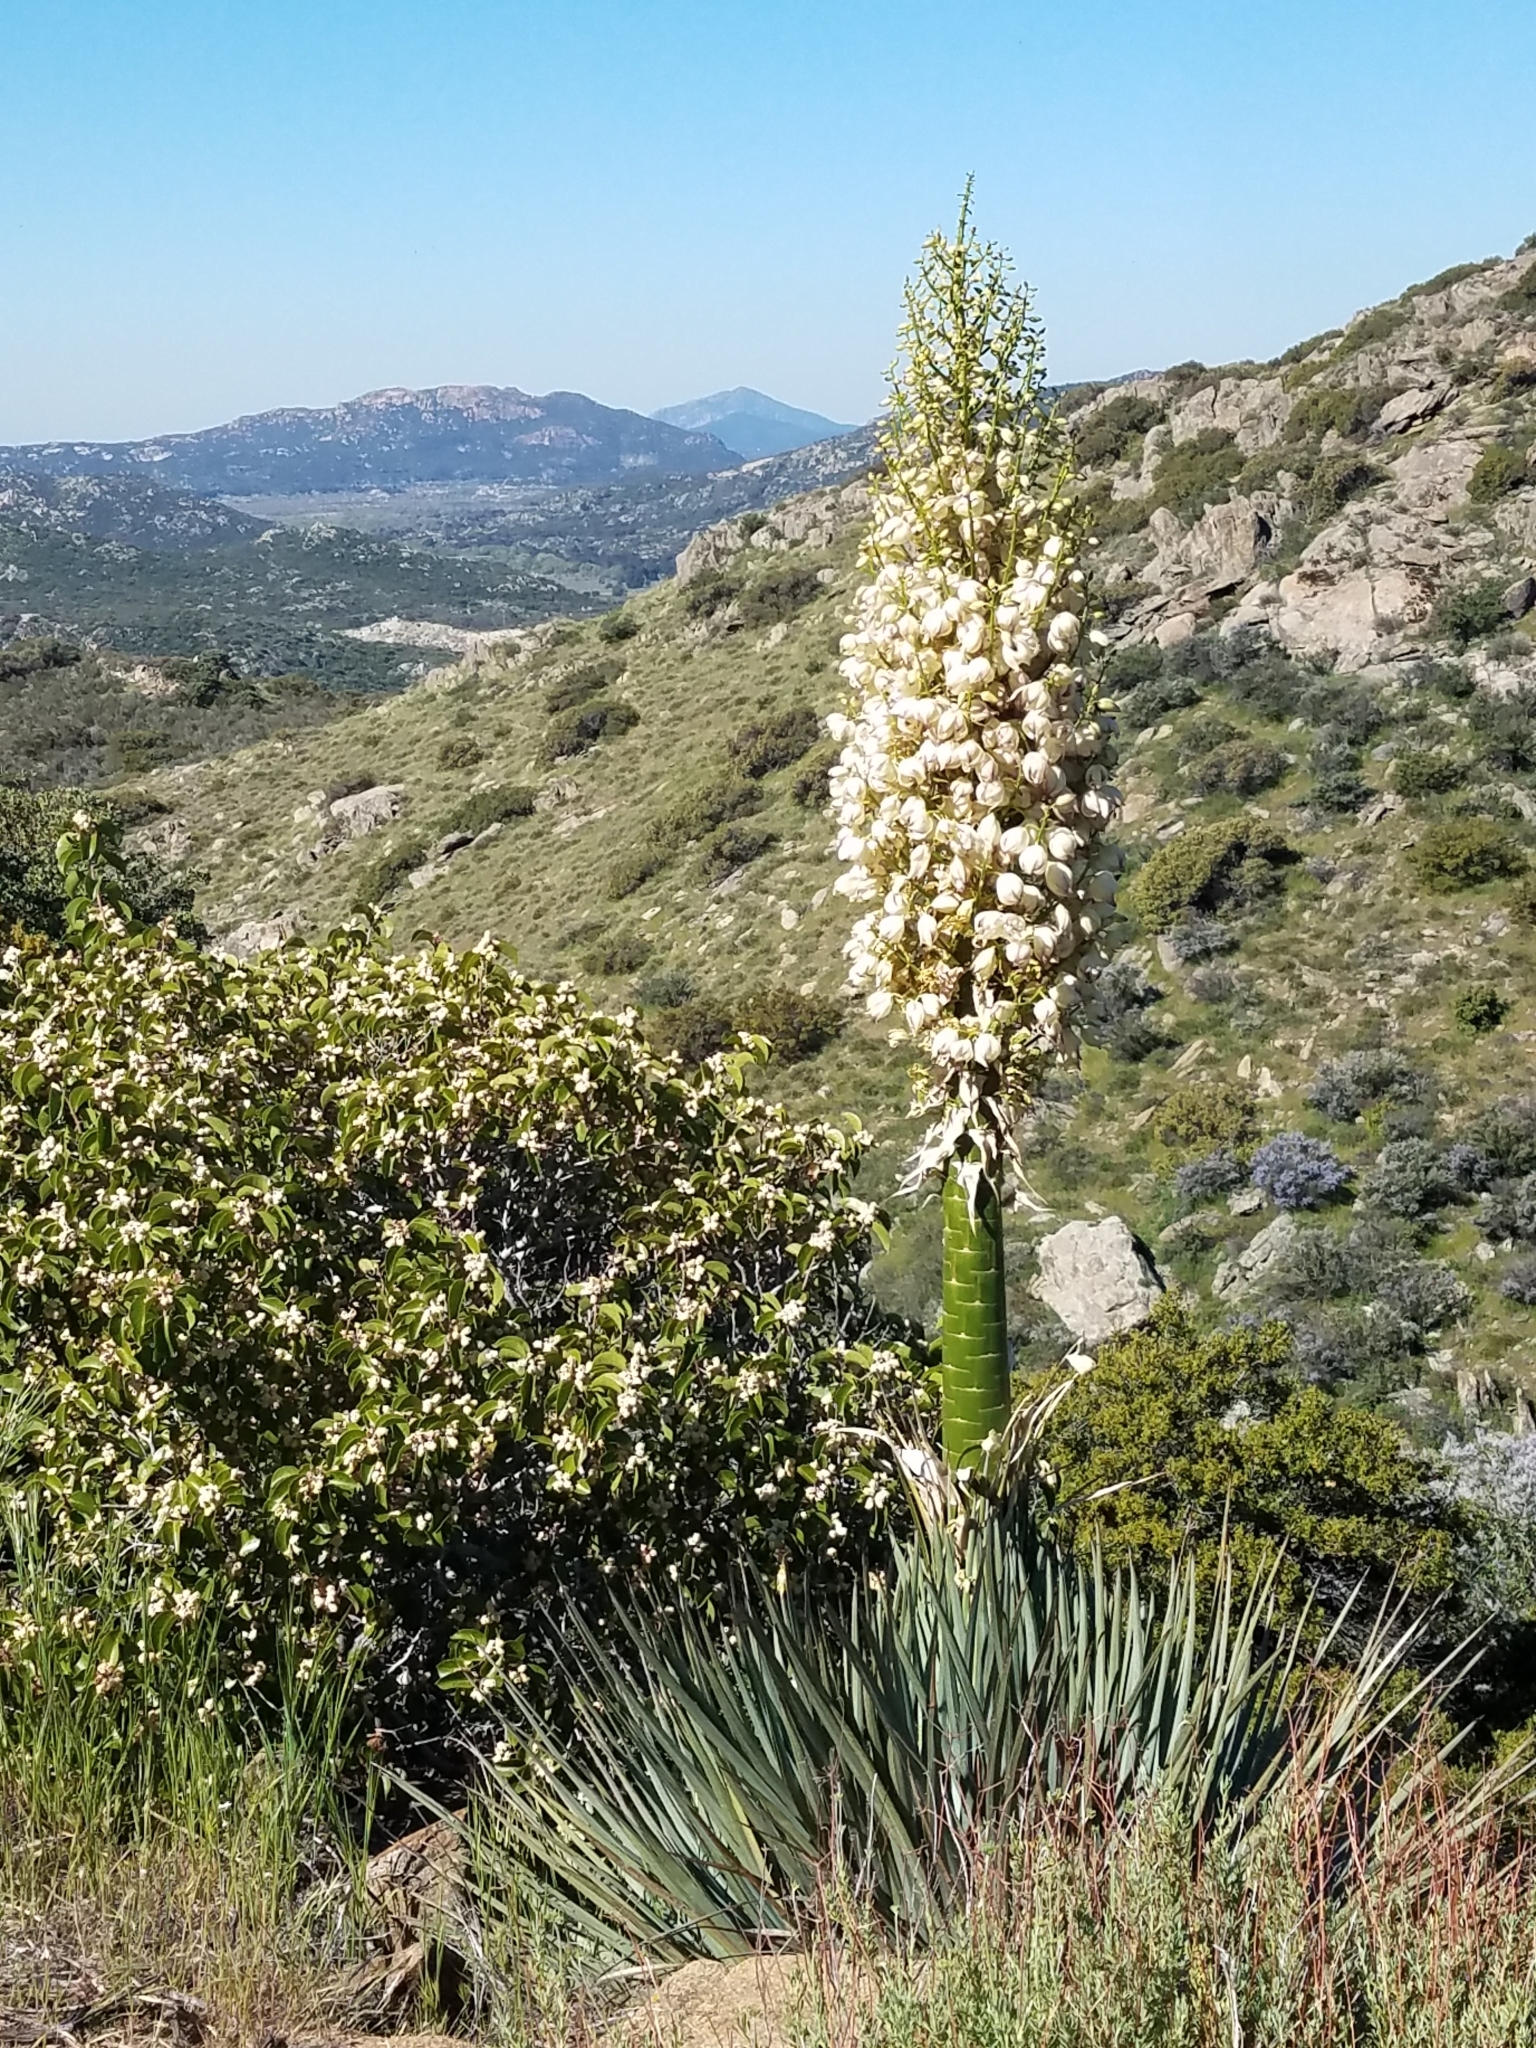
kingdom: Plantae
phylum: Tracheophyta
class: Liliopsida
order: Asparagales
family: Asparagaceae
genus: Hesperoyucca
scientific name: Hesperoyucca whipplei
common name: Our lord's-candle
